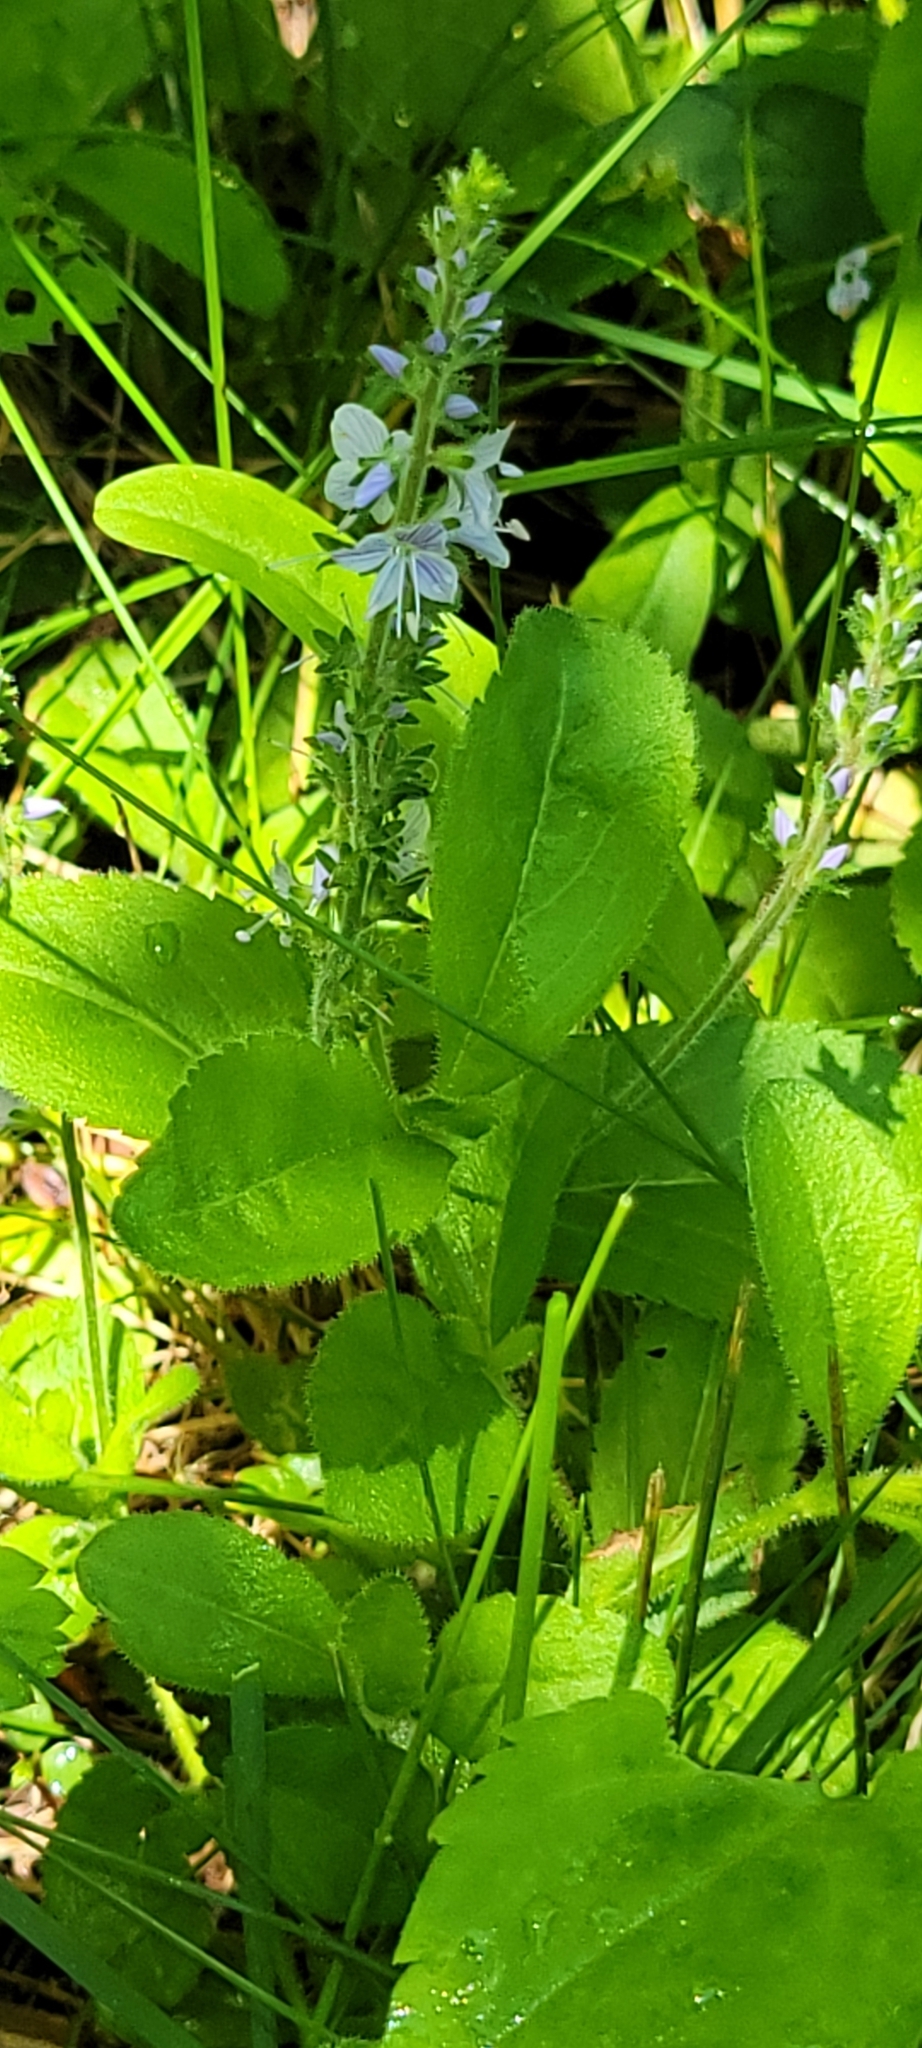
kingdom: Plantae
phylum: Tracheophyta
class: Magnoliopsida
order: Lamiales
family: Plantaginaceae
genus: Veronica
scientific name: Veronica officinalis
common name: Common speedwell
